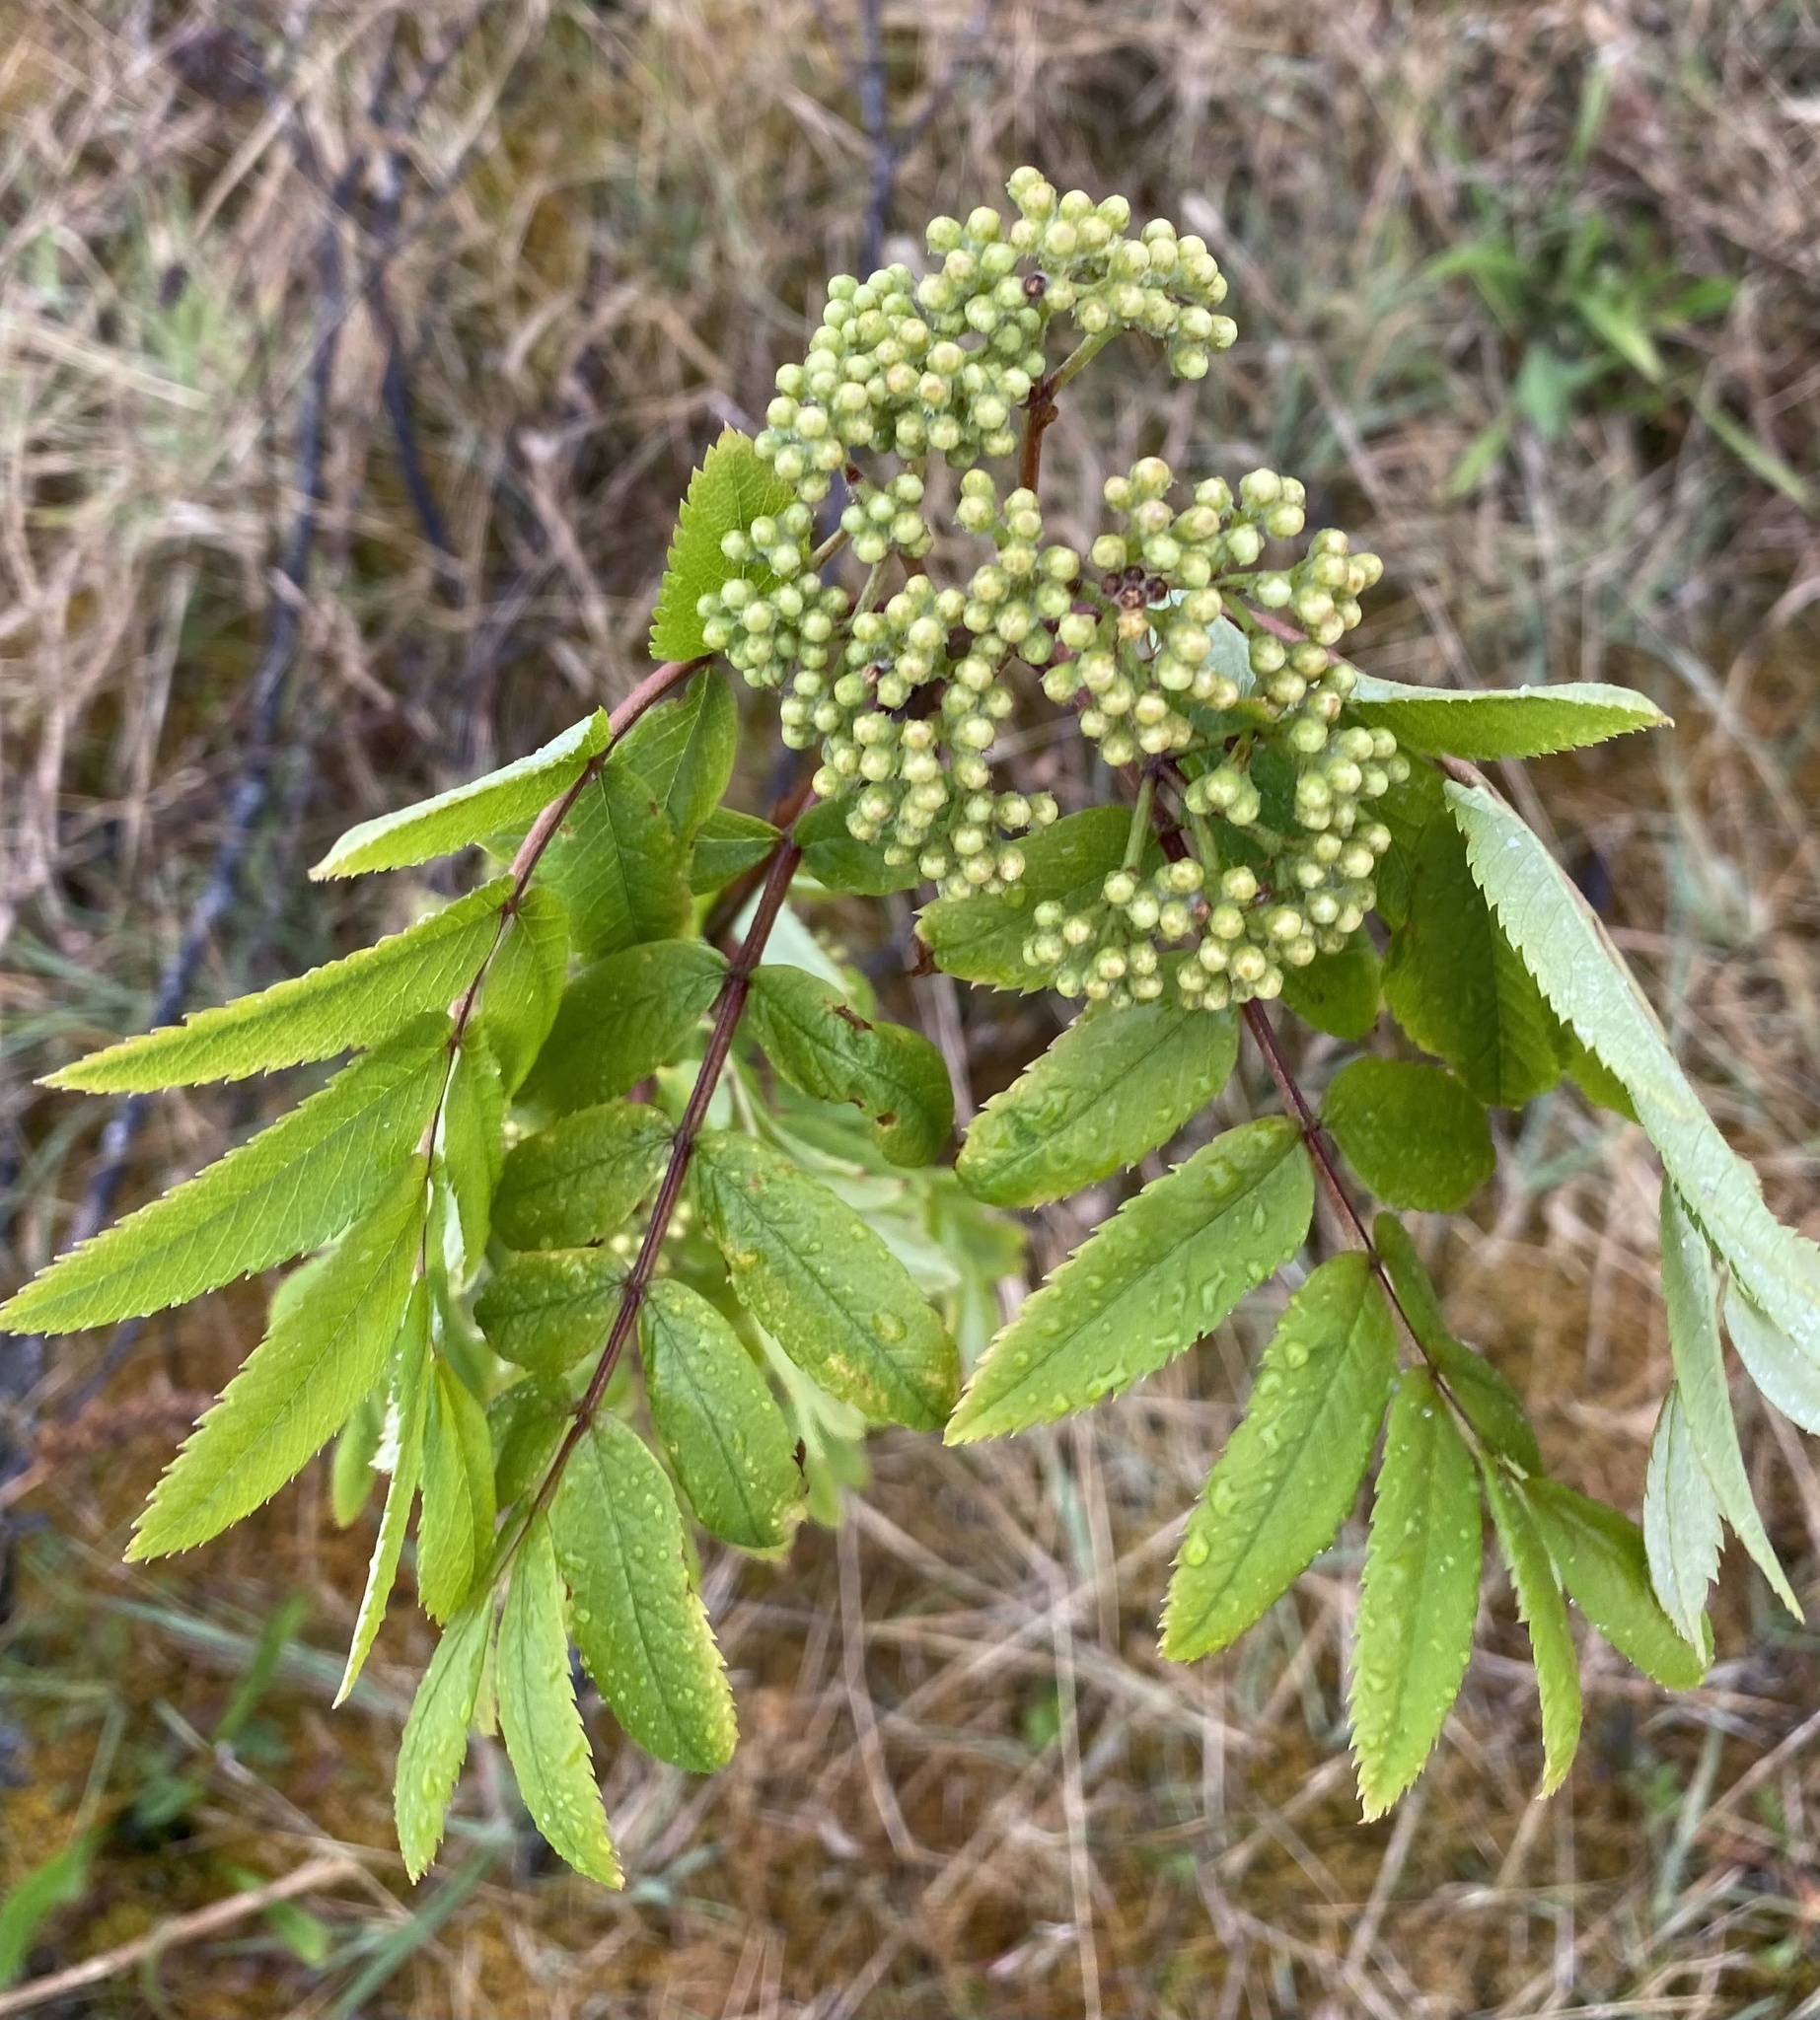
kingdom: Plantae
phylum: Tracheophyta
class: Magnoliopsida
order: Rosales
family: Rosaceae
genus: Sorbus
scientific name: Sorbus aucuparia
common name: Rowan
